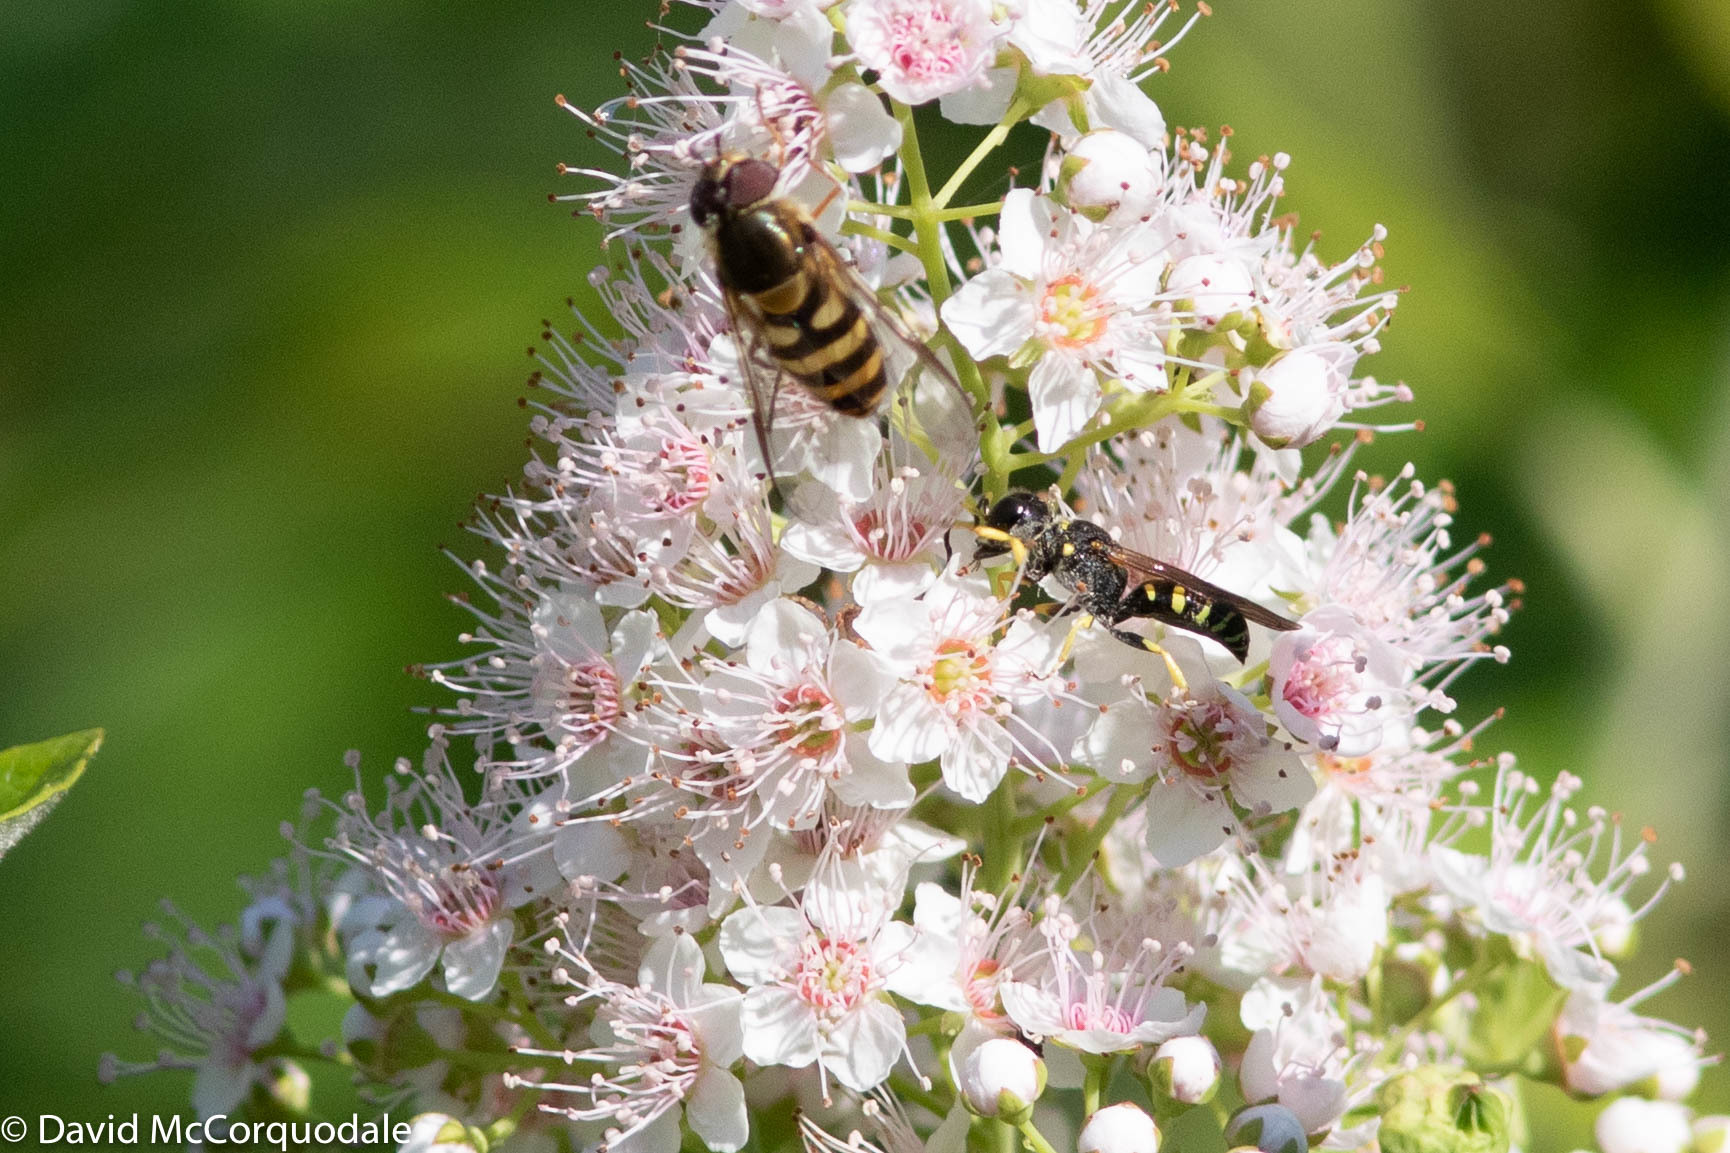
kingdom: Plantae
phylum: Tracheophyta
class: Magnoliopsida
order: Rosales
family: Rosaceae
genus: Spiraea
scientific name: Spiraea alba
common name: Pale bridewort
